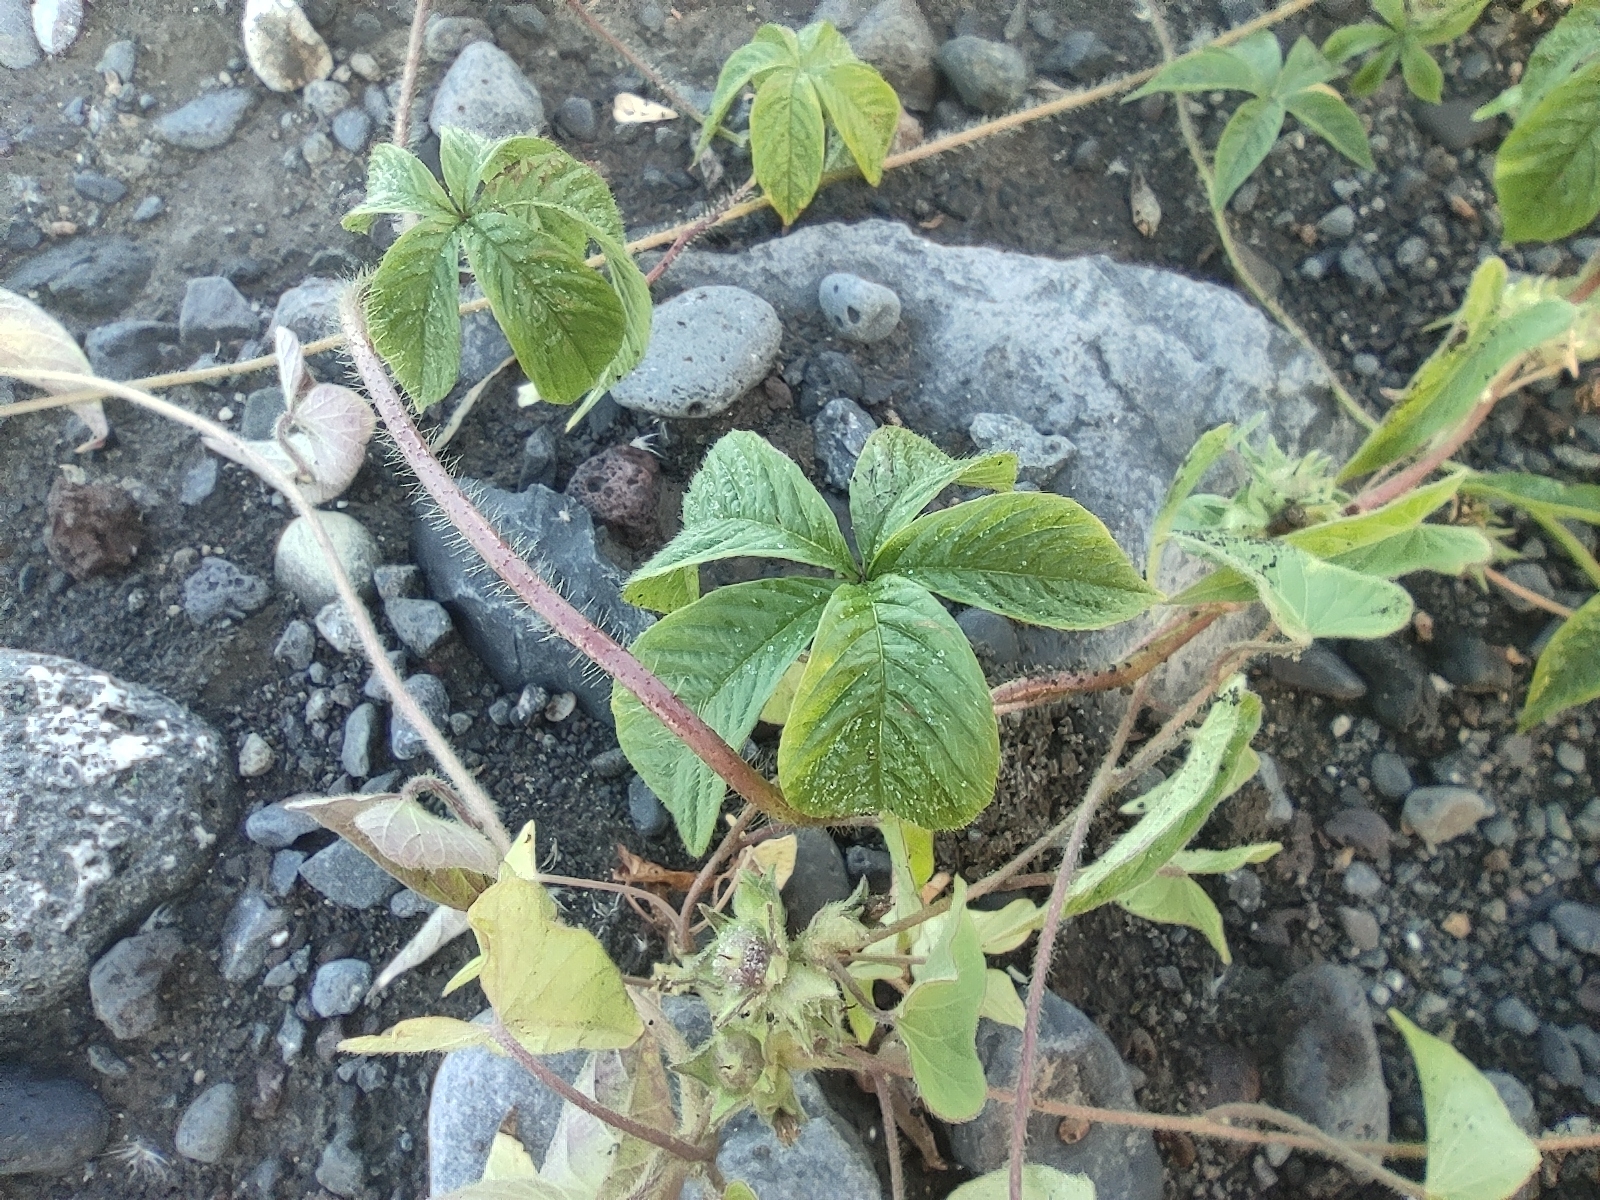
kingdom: Plantae
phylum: Tracheophyta
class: Magnoliopsida
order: Solanales
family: Convolvulaceae
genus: Distimake
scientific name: Distimake aegyptius
